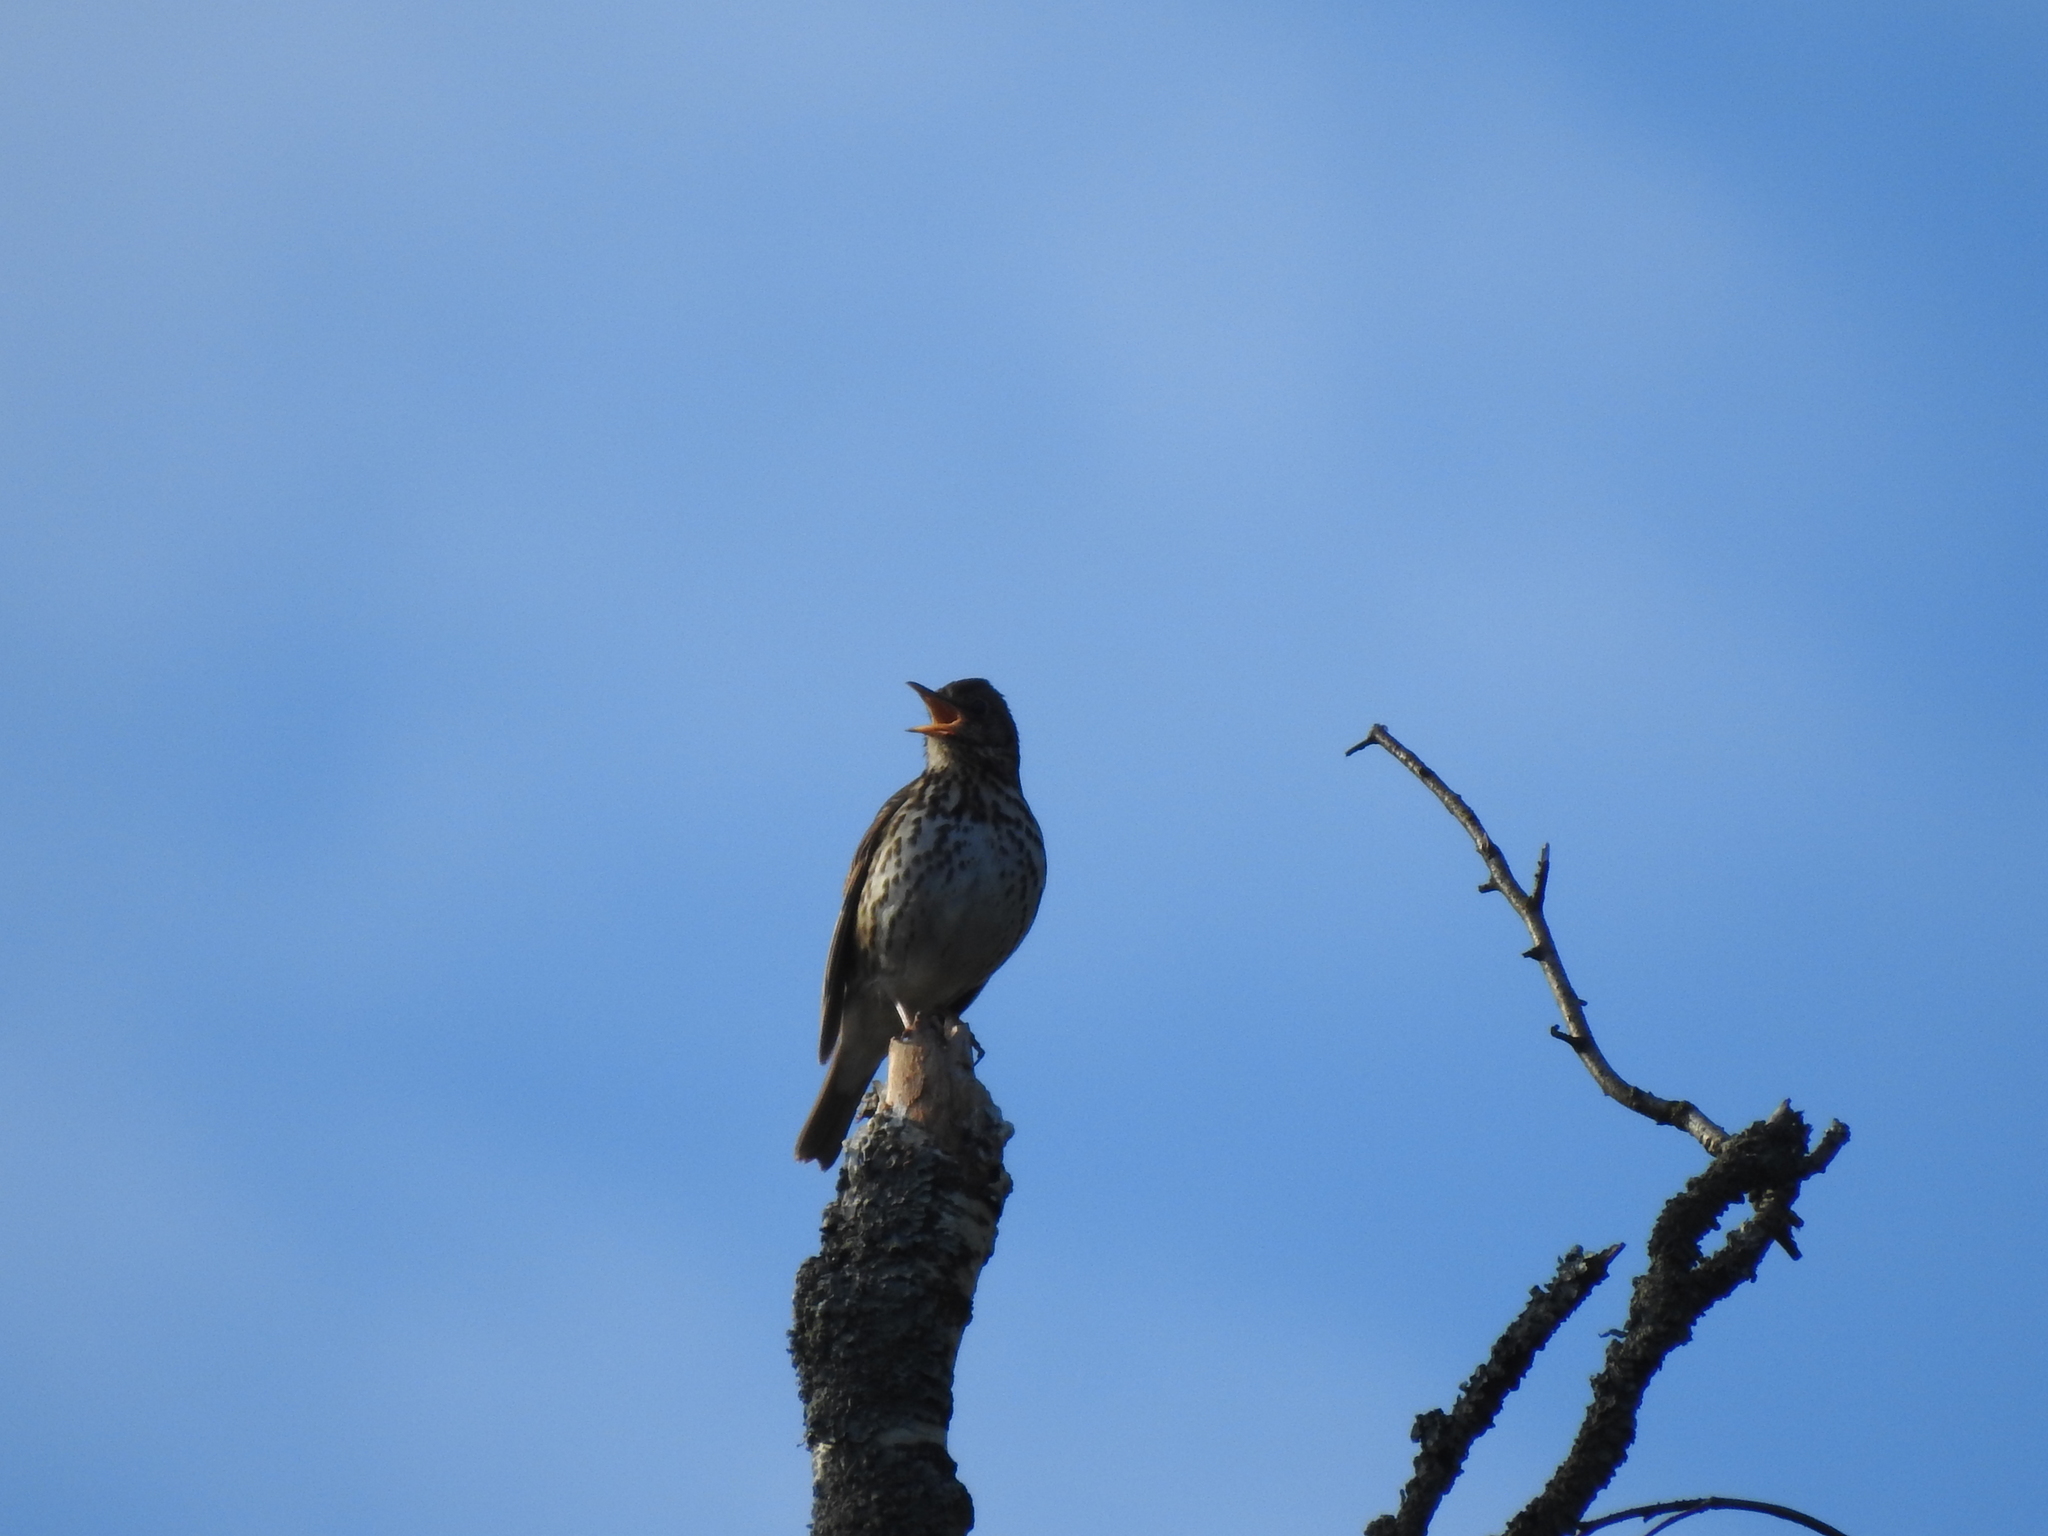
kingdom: Animalia
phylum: Chordata
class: Aves
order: Passeriformes
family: Turdidae
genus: Turdus
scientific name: Turdus philomelos
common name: Song thrush
